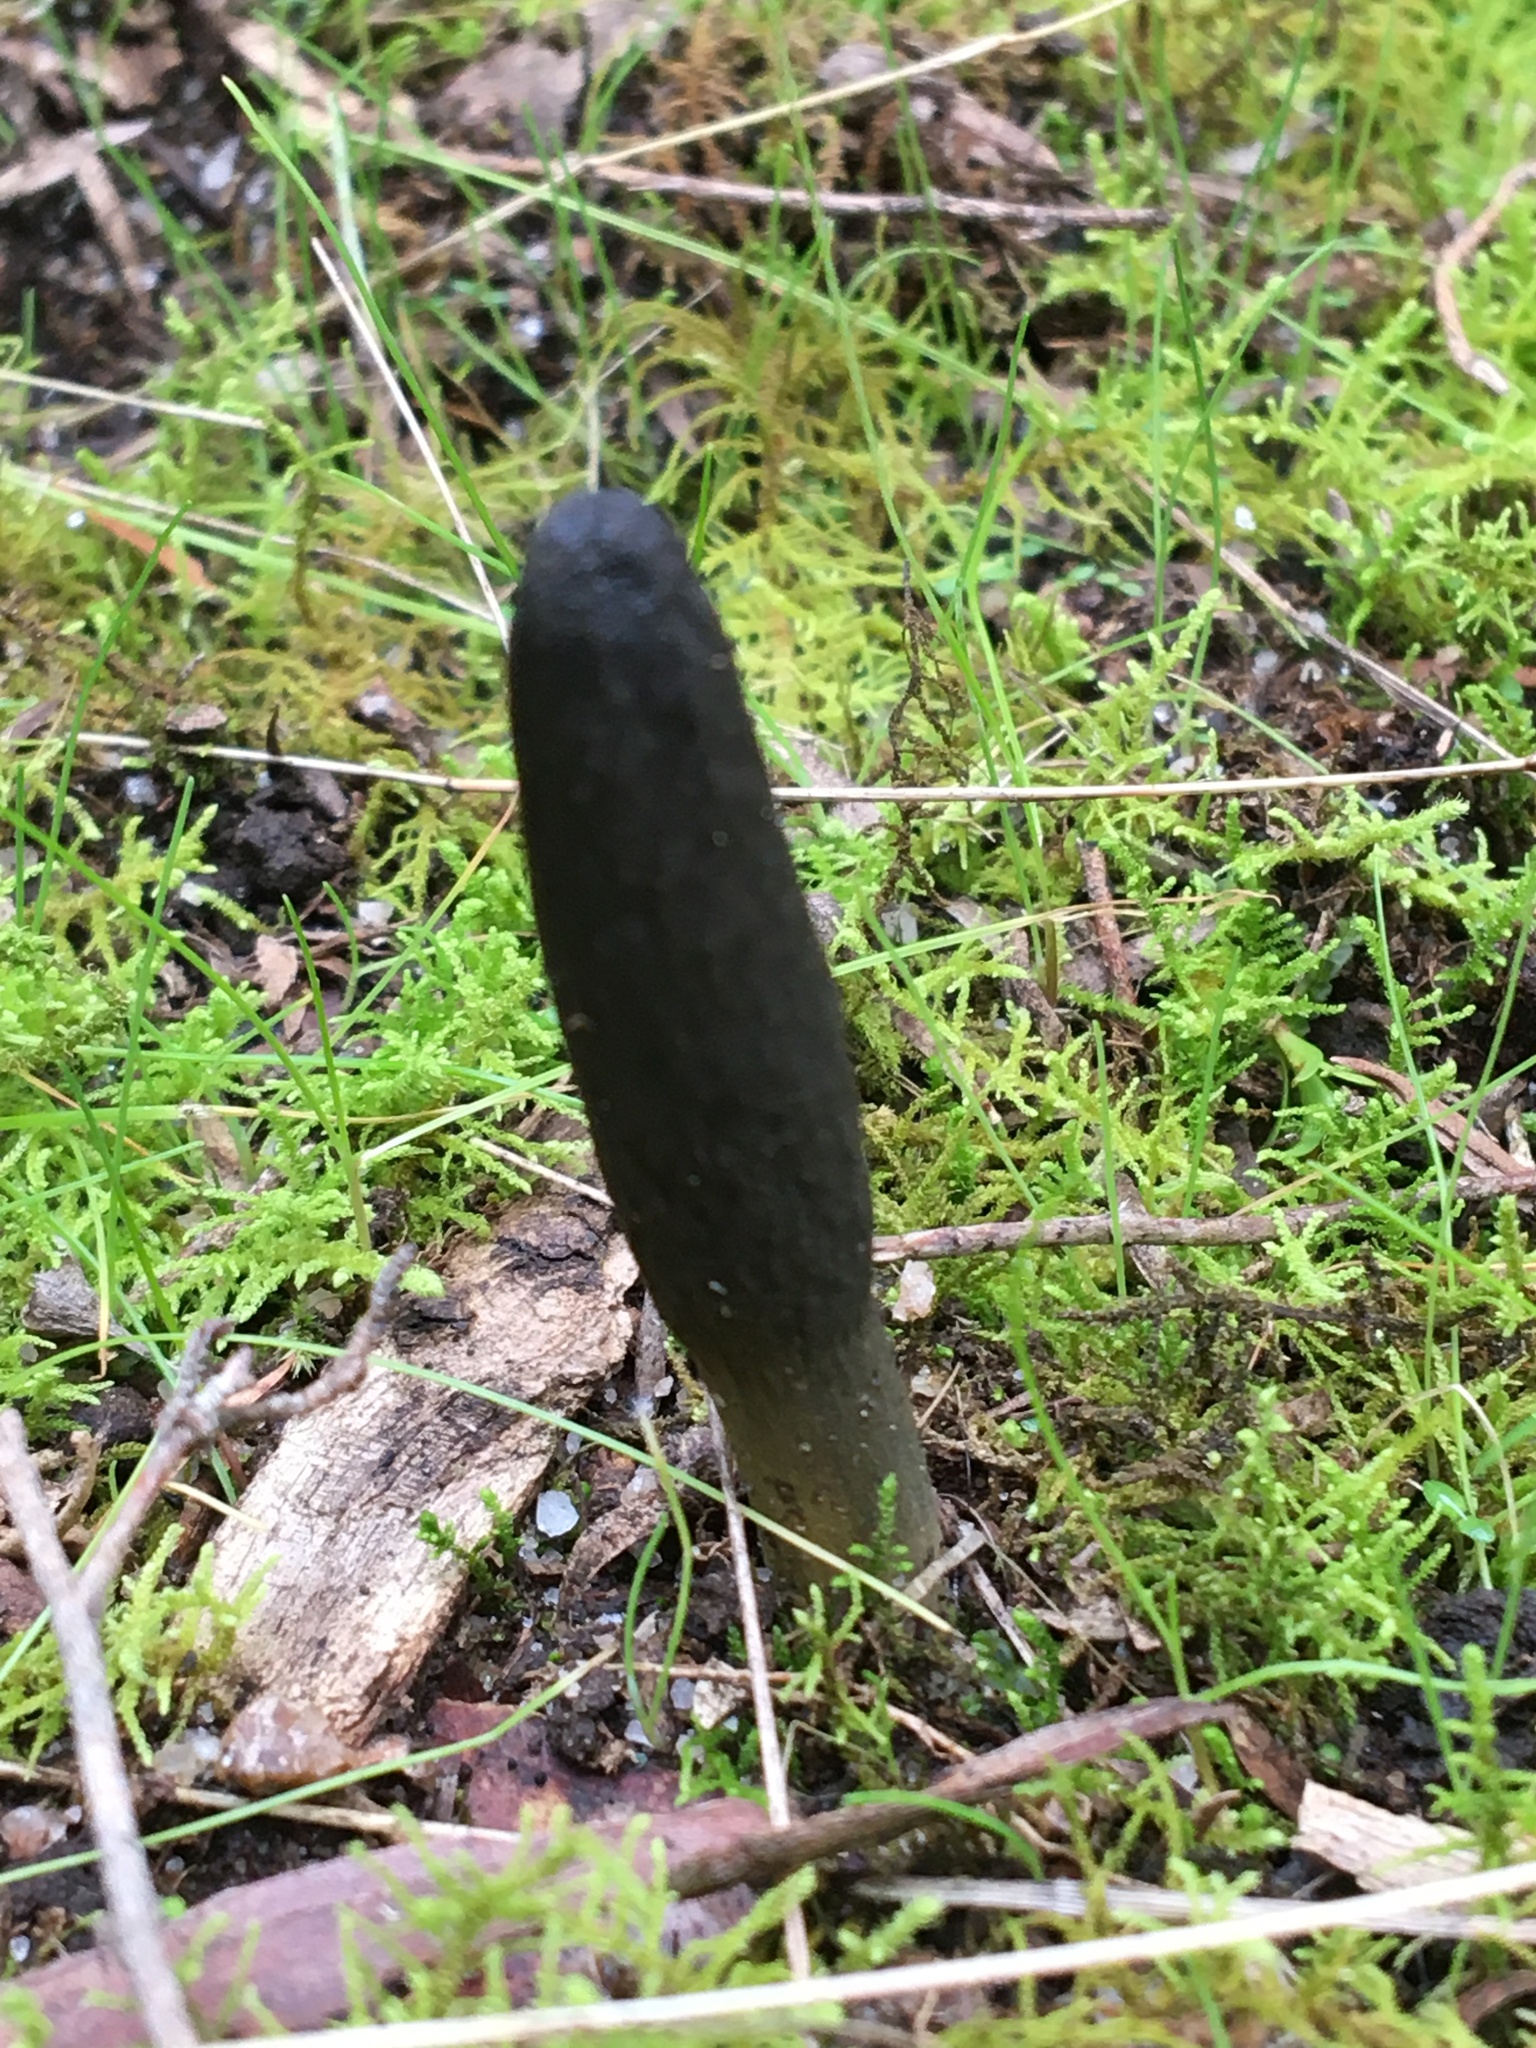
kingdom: Fungi
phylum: Ascomycota
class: Sordariomycetes
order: Hypocreales
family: Clavicipitaceae
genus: Drechmeria
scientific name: Drechmeria gunnii
